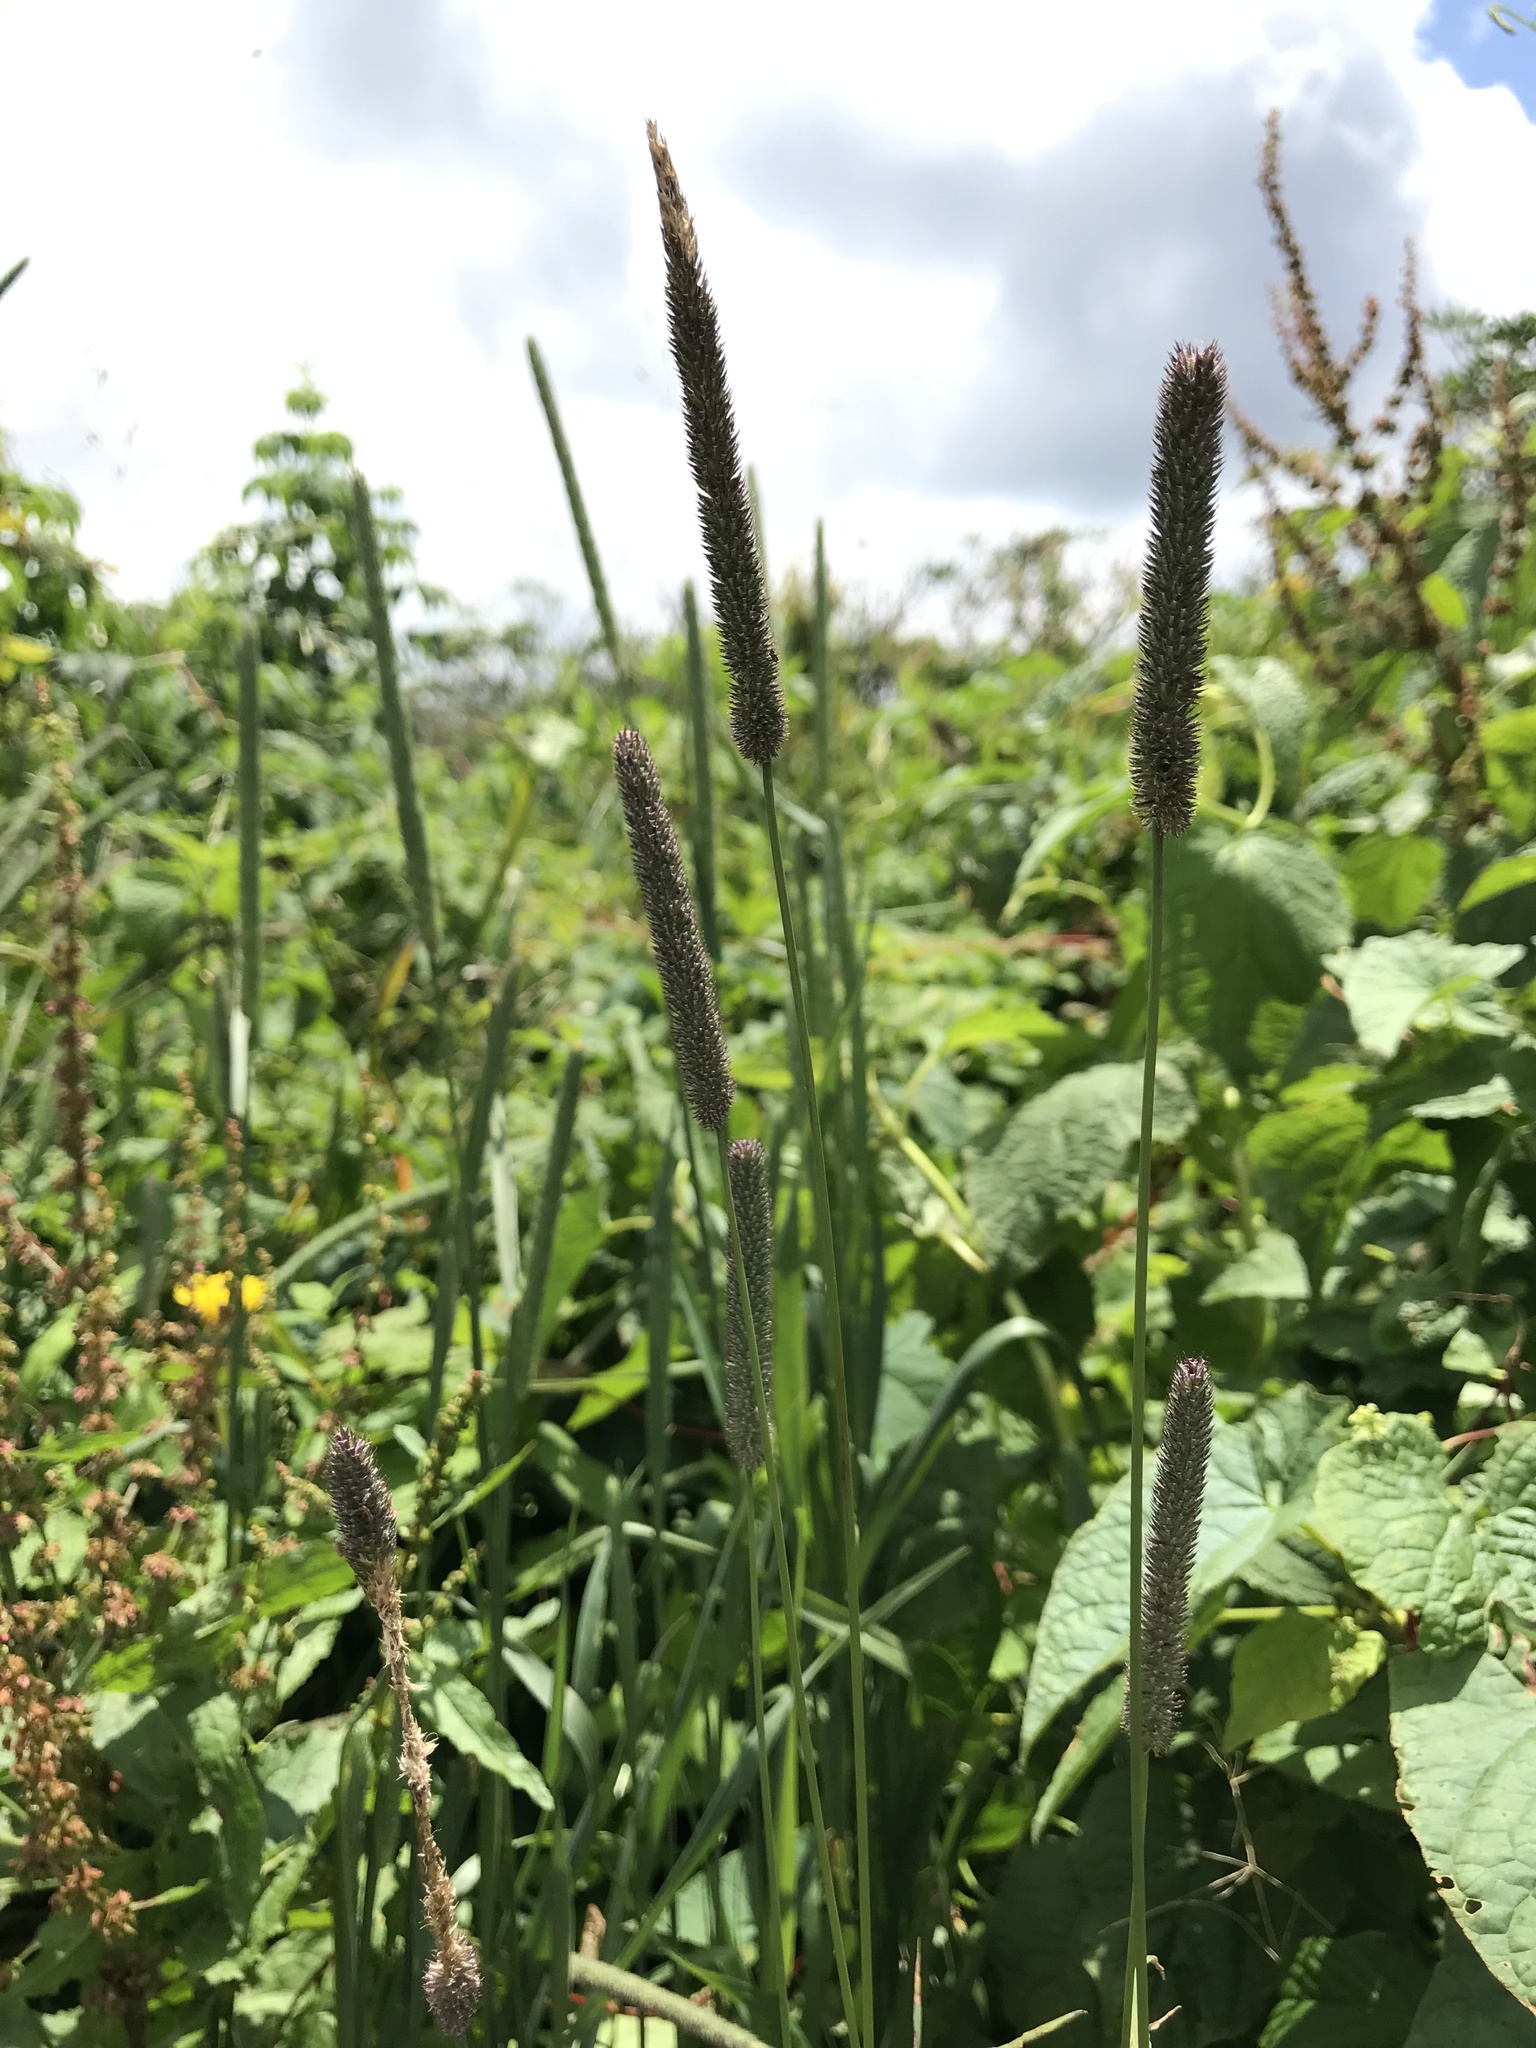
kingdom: Plantae
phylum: Tracheophyta
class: Liliopsida
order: Poales
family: Poaceae
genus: Phleum
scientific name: Phleum pratense
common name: Timothy grass
